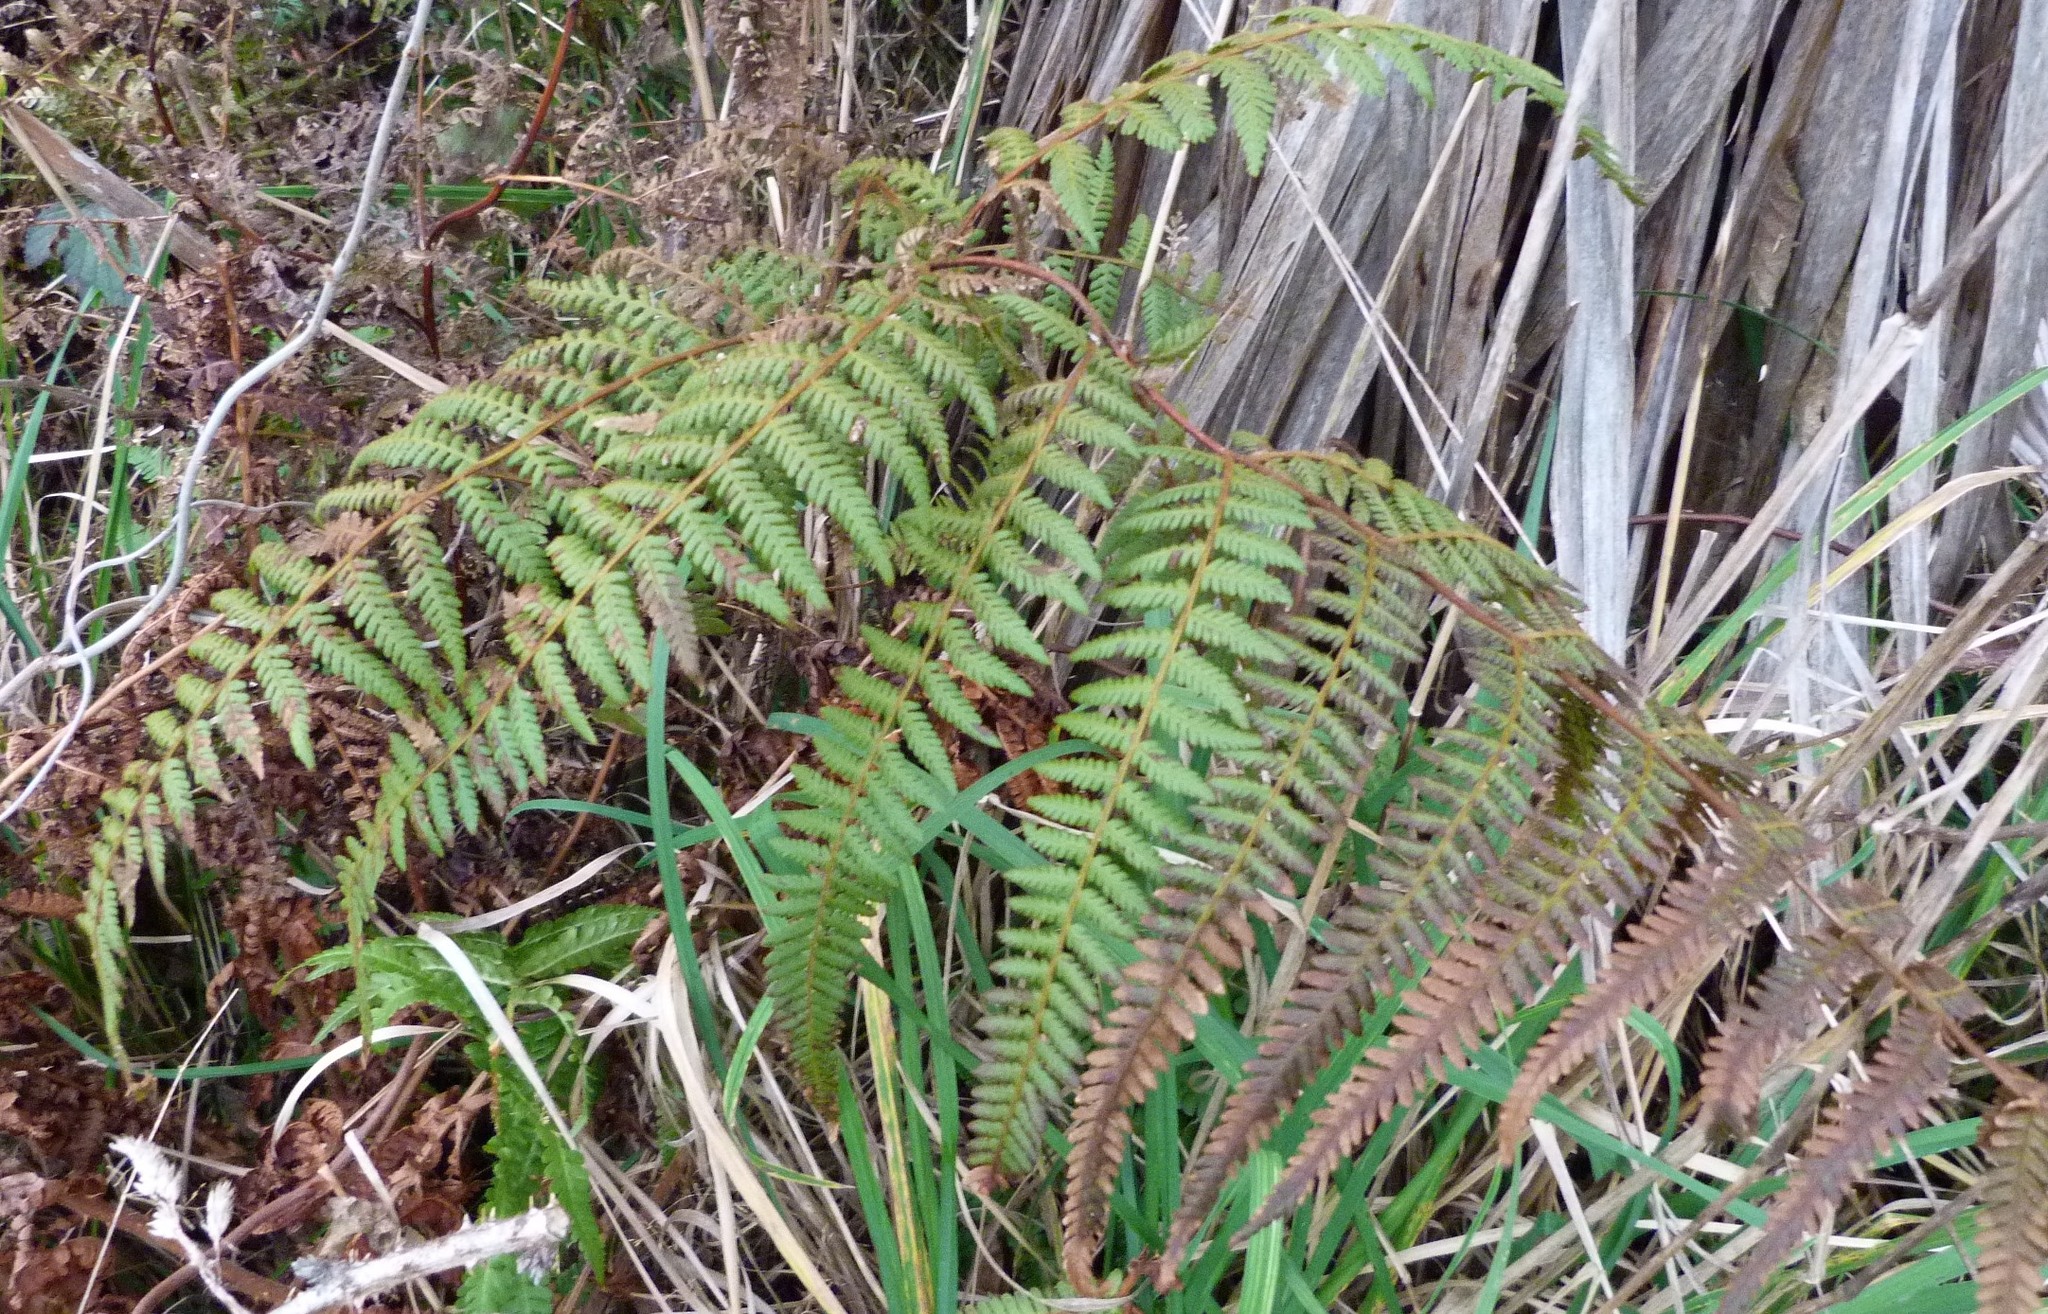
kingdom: Plantae
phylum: Tracheophyta
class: Polypodiopsida
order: Polypodiales
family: Dennstaedtiaceae
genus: Hypolepis
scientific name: Hypolepis ambigua
